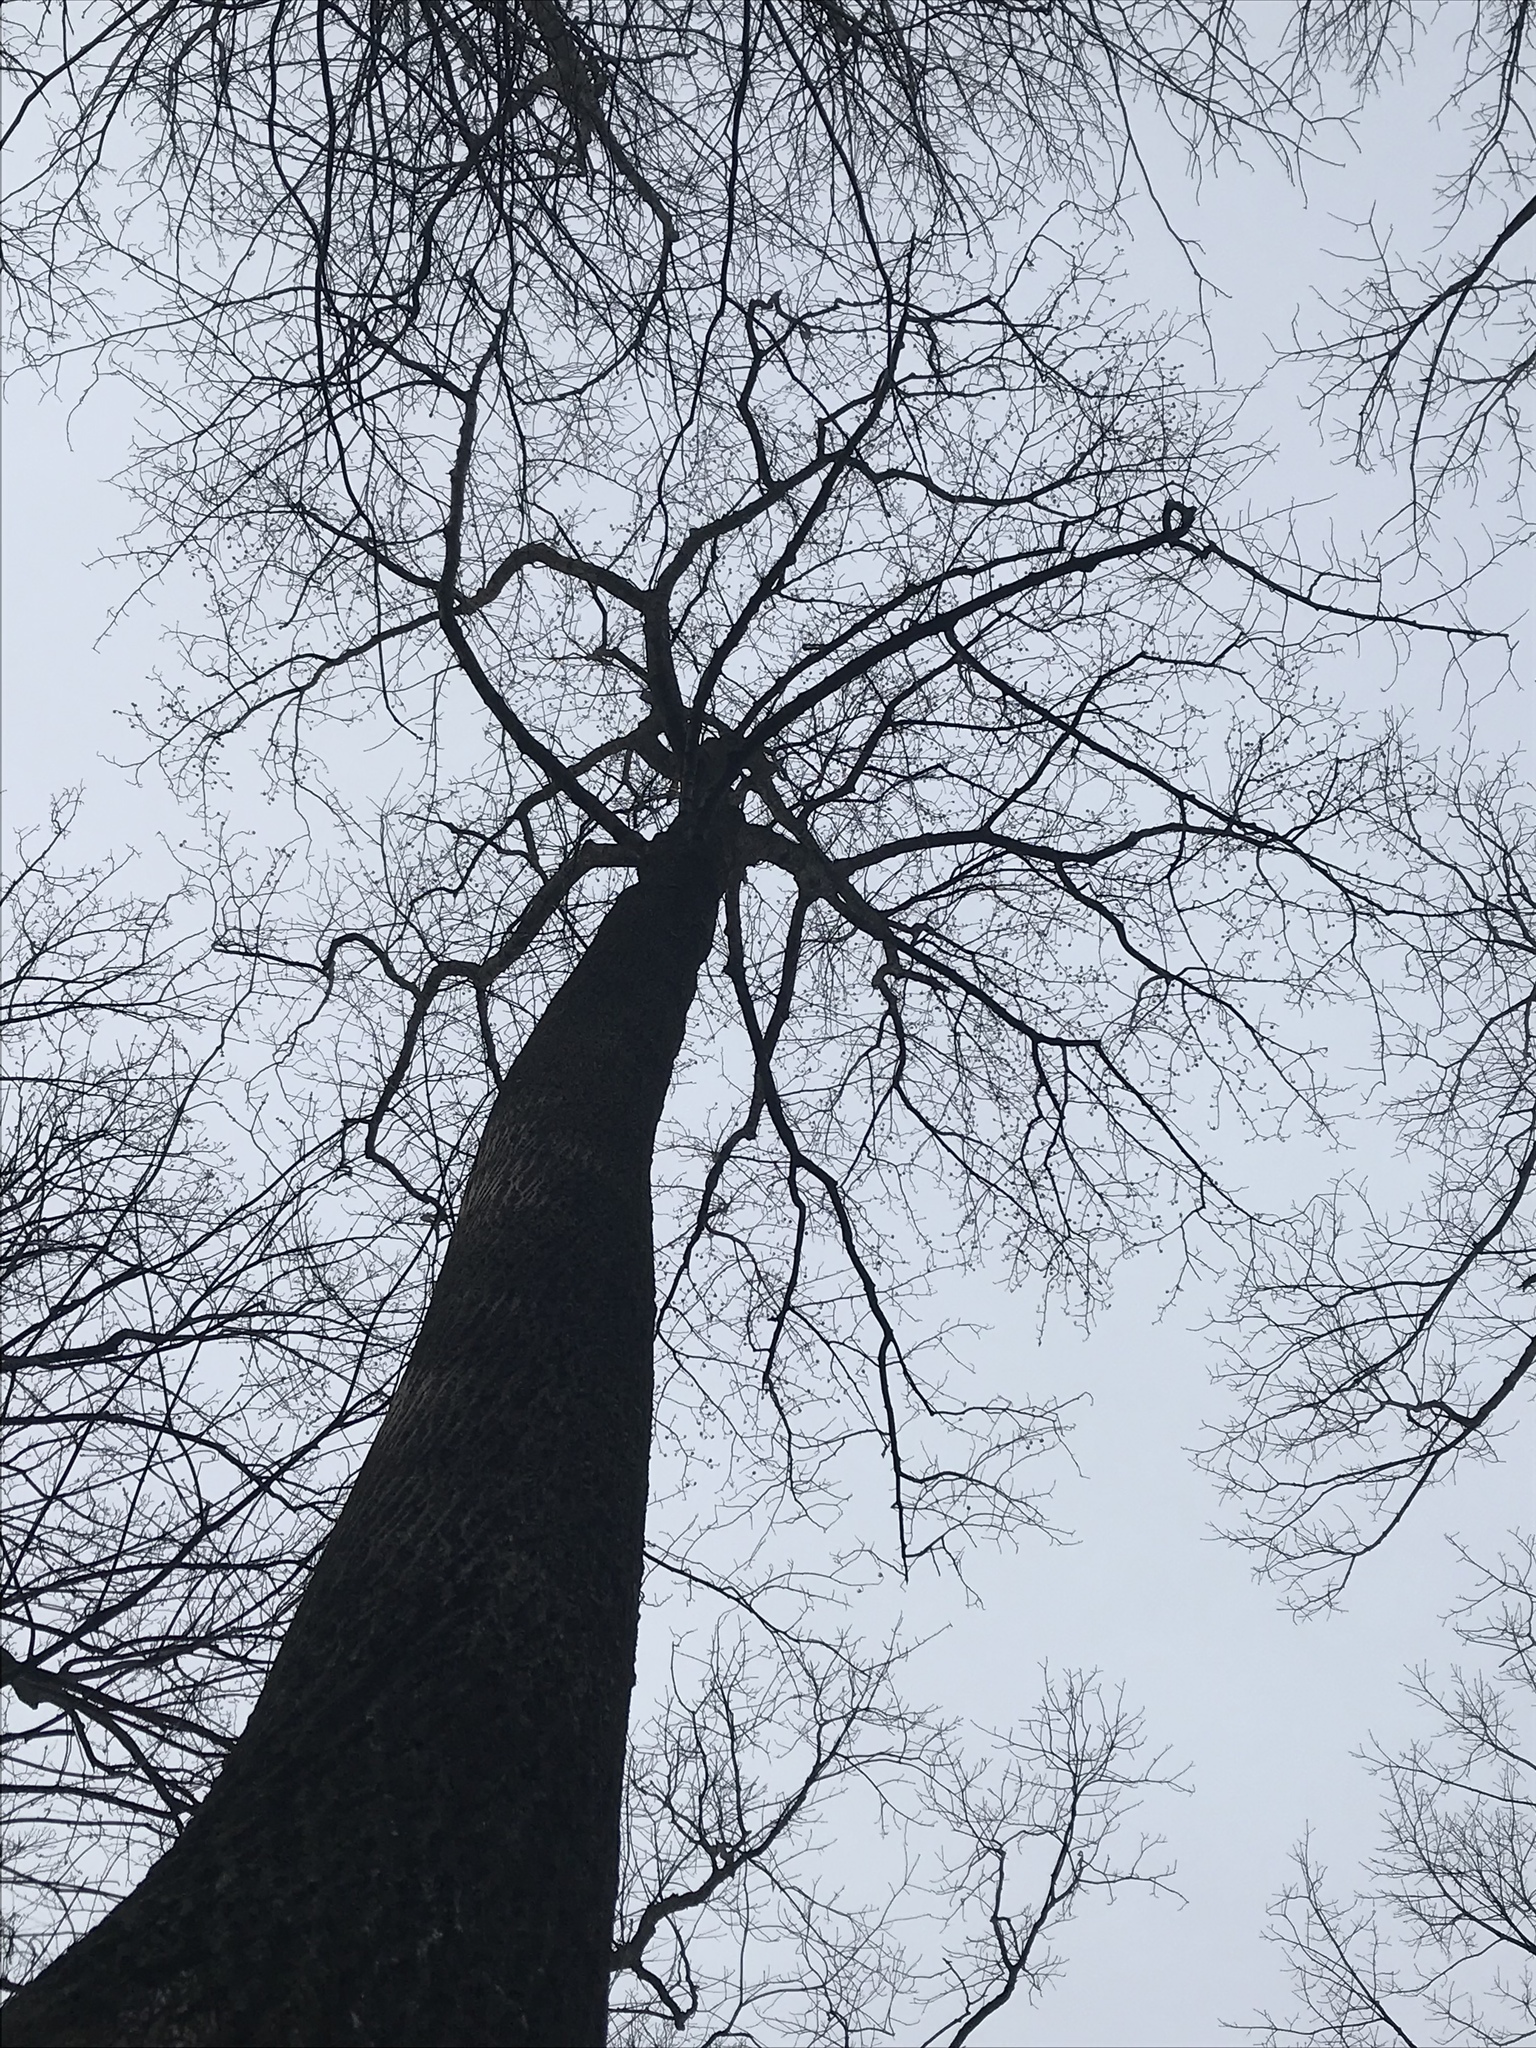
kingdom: Plantae
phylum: Tracheophyta
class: Magnoliopsida
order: Magnoliales
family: Magnoliaceae
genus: Liriodendron
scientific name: Liriodendron tulipifera
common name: Tulip tree
